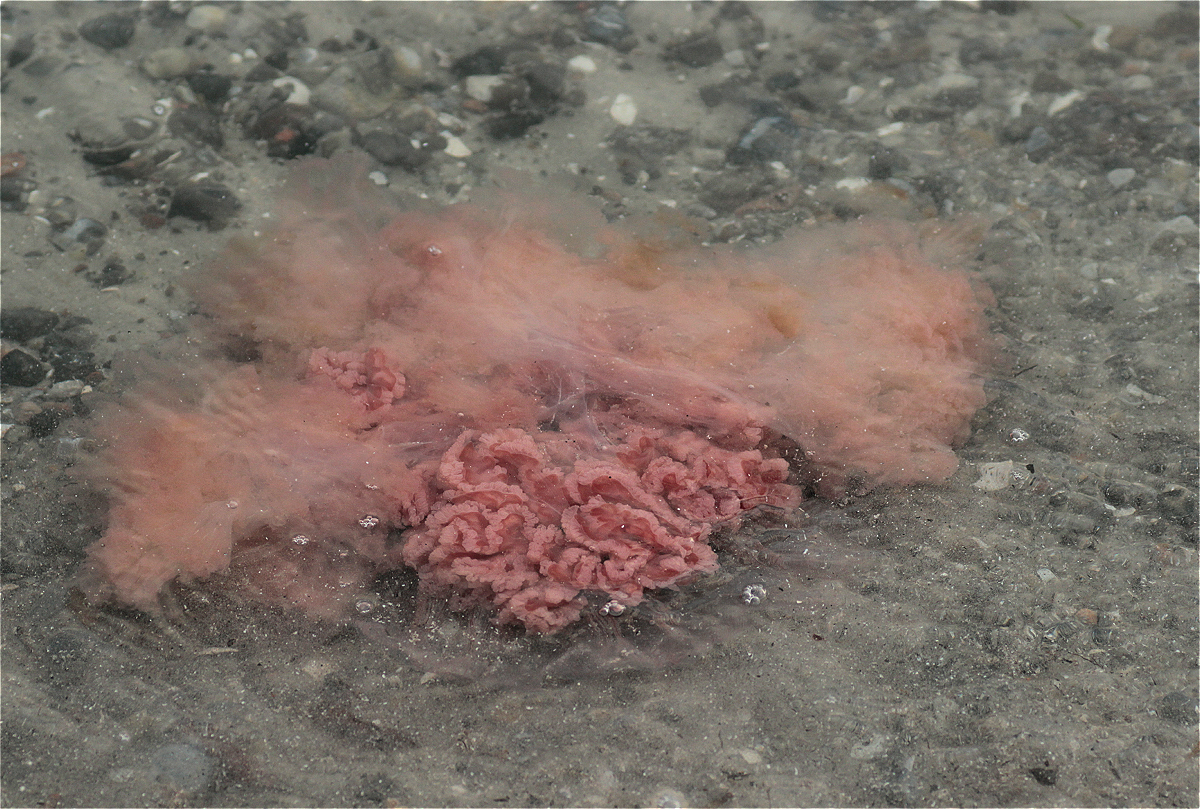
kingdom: Animalia
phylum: Cnidaria
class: Scyphozoa
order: Semaeostomeae
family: Cyaneidae
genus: Cyanea
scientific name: Cyanea capillata
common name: Lion's mane jellyfish
